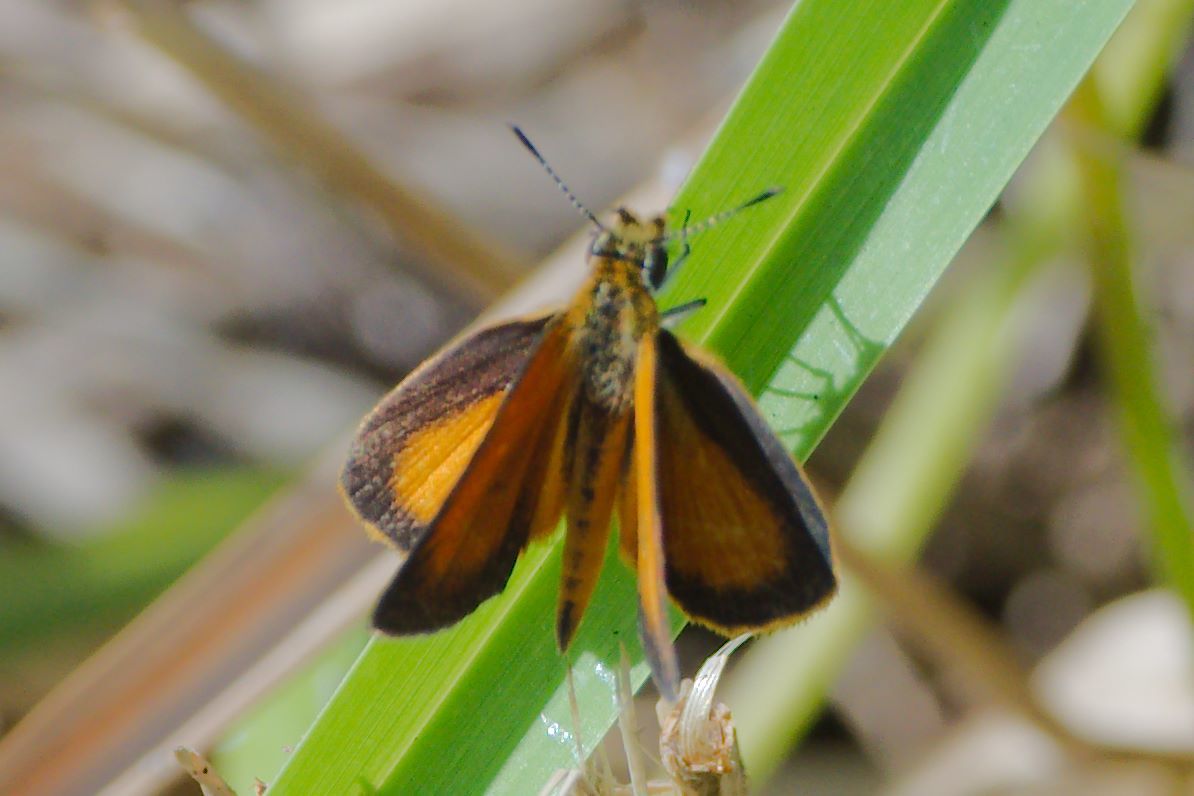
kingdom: Animalia
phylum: Arthropoda
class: Insecta
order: Lepidoptera
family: Hesperiidae
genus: Ancyloxypha
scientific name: Ancyloxypha numitor
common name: Least skipper
